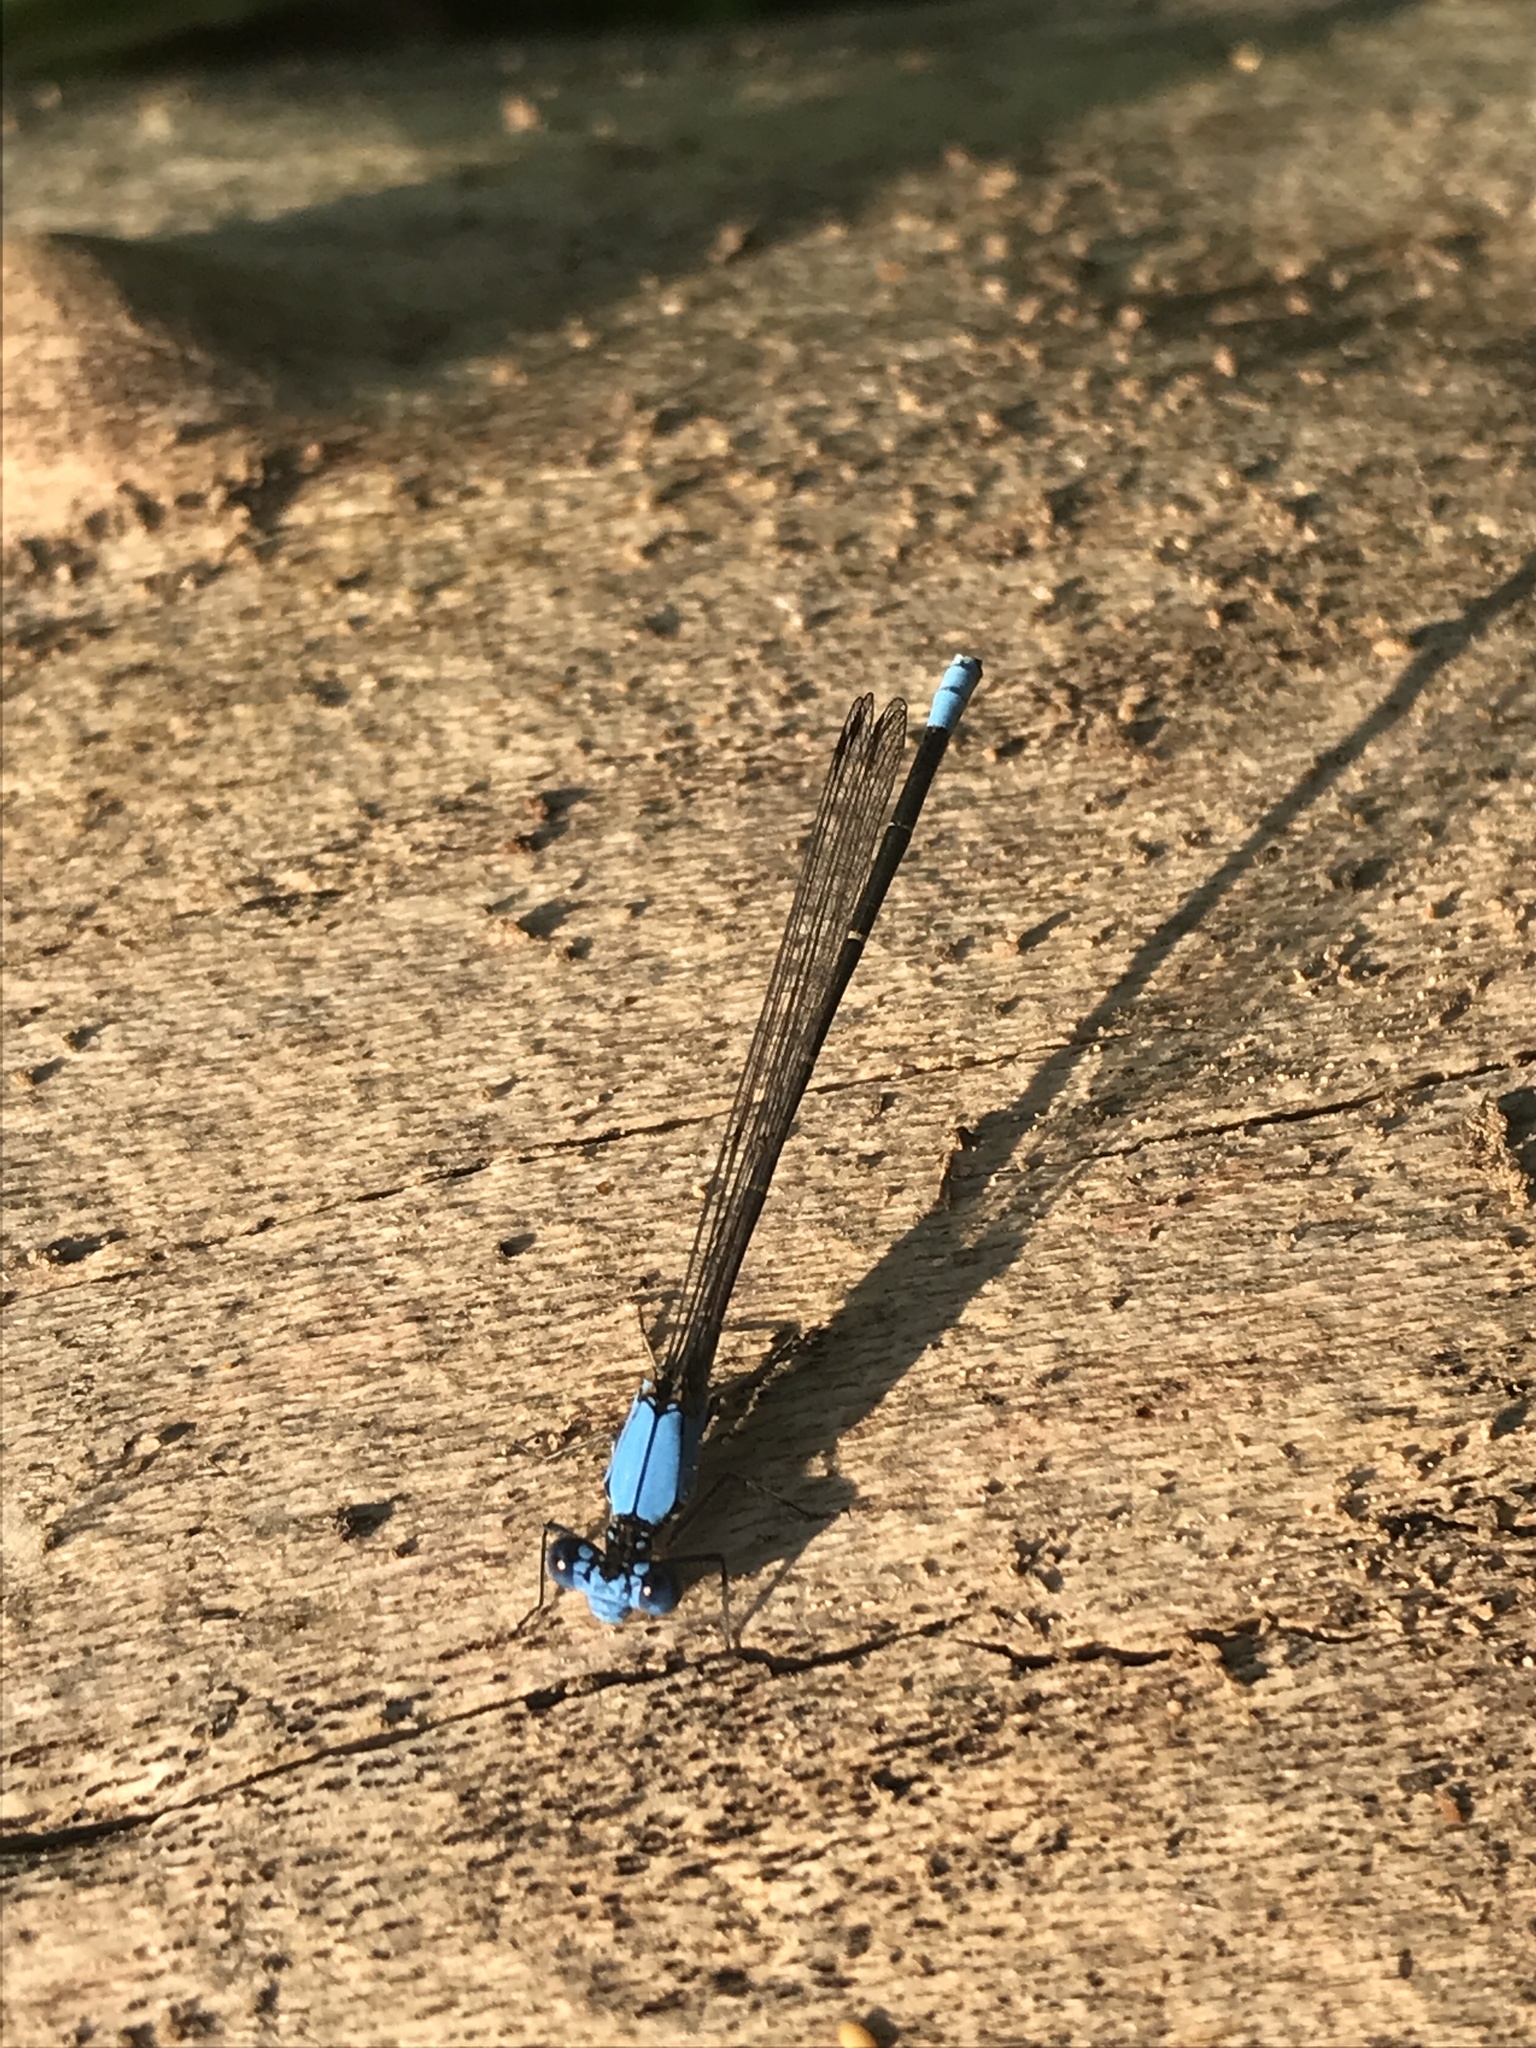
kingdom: Animalia
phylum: Arthropoda
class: Insecta
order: Odonata
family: Coenagrionidae
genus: Argia
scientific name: Argia apicalis
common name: Blue-fronted dancer
